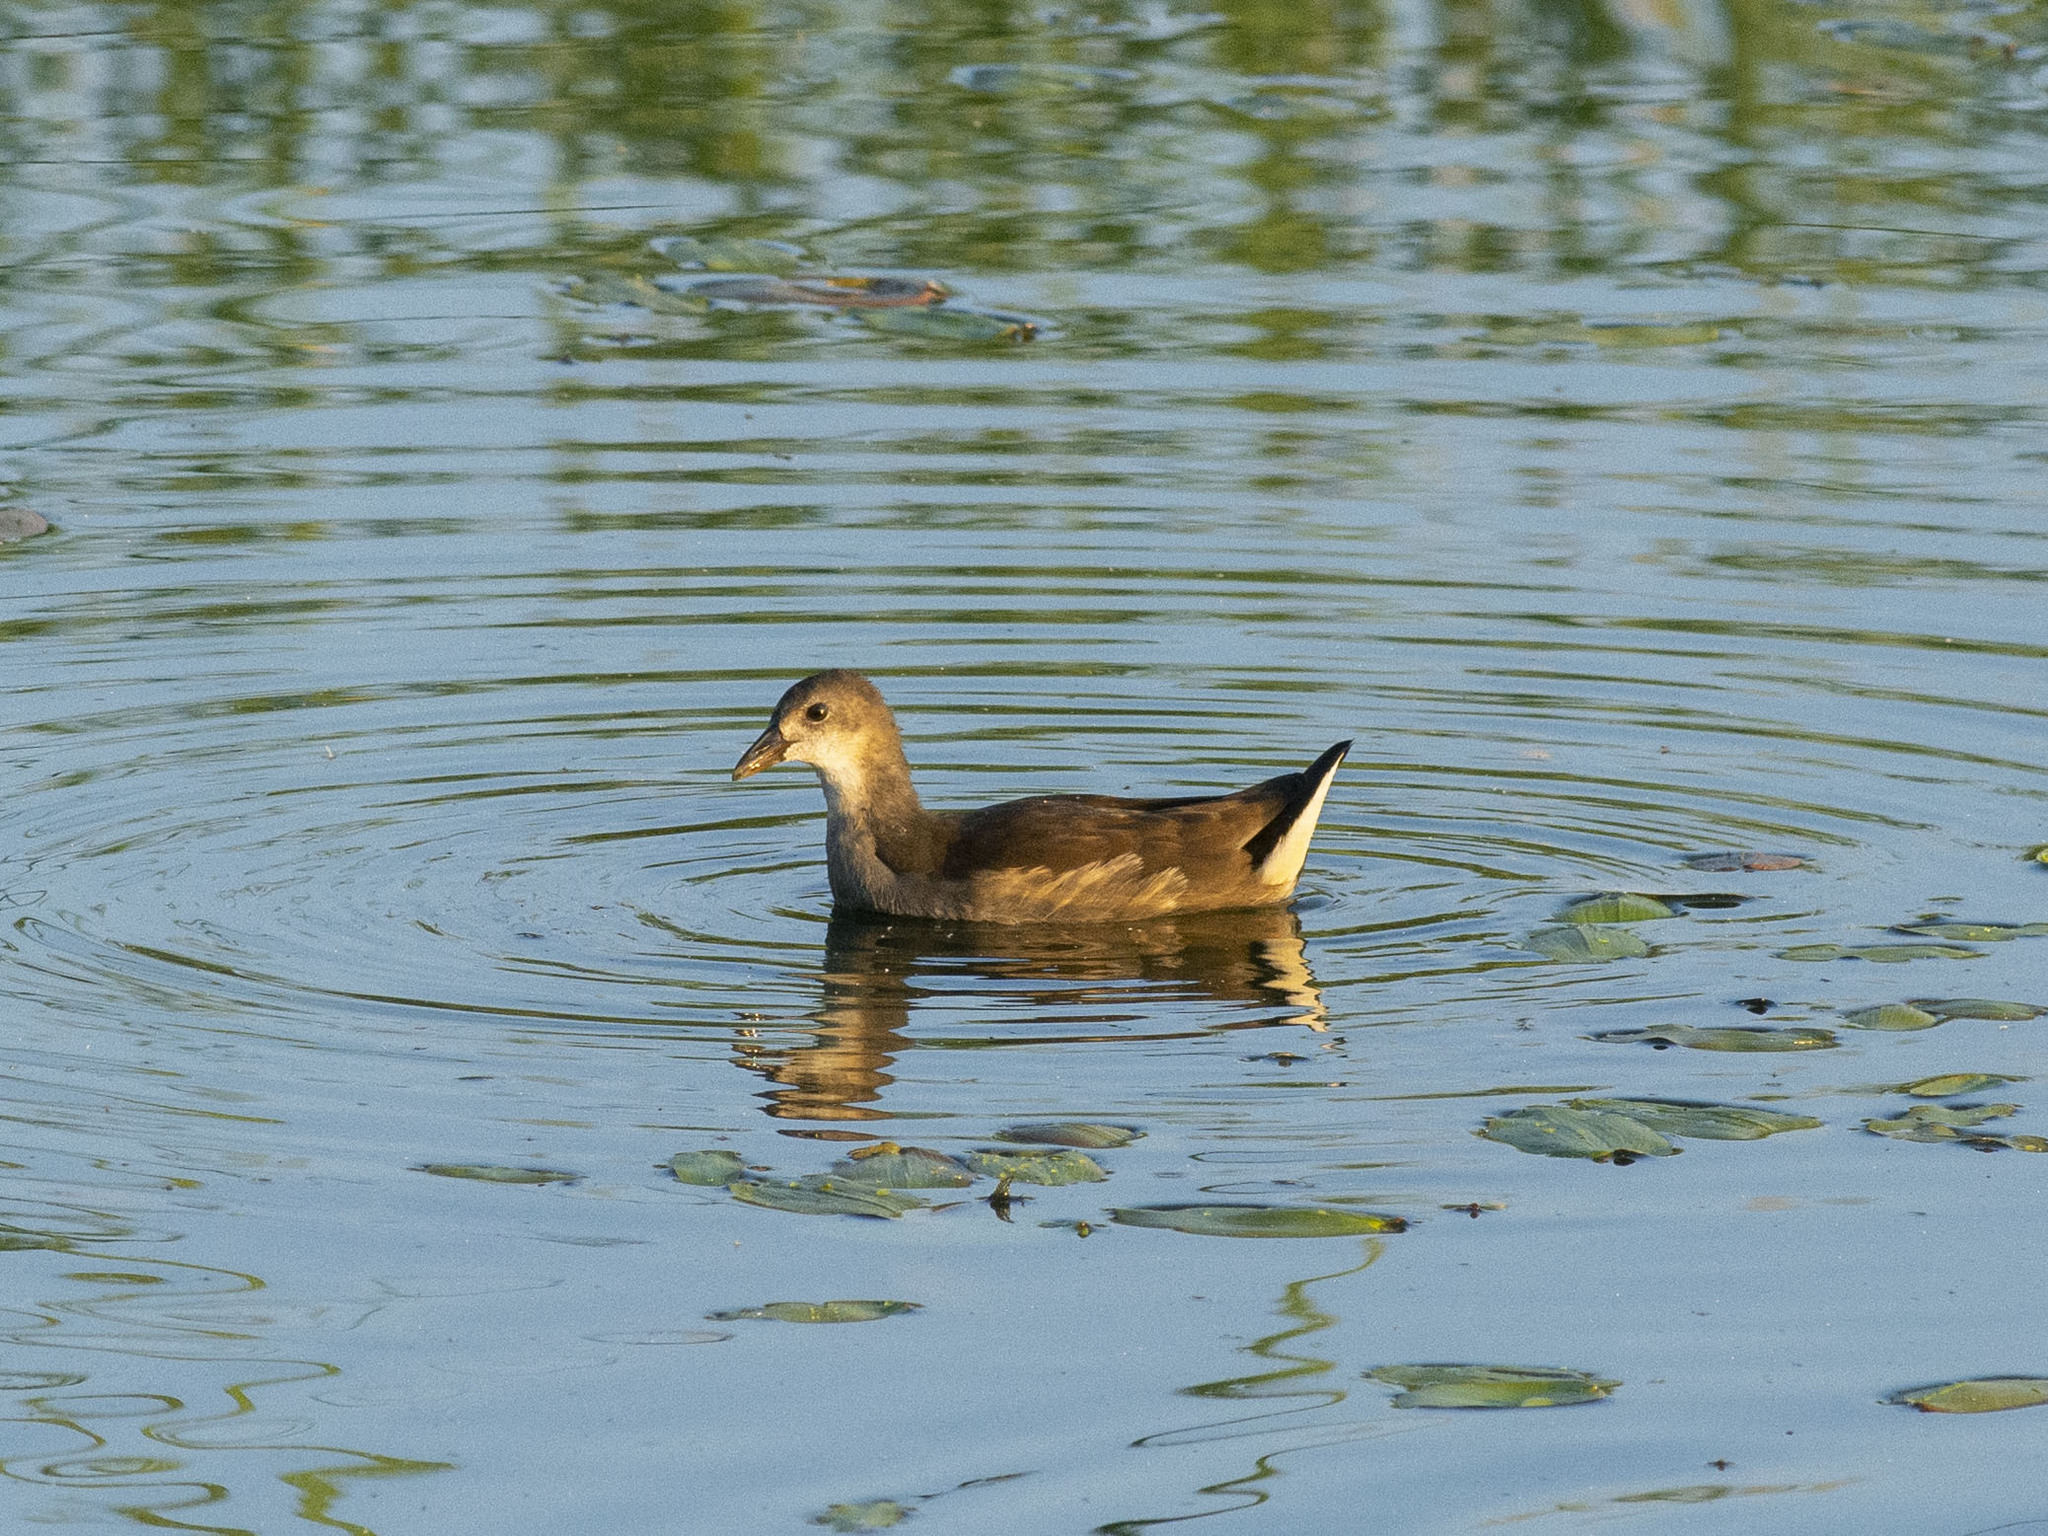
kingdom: Animalia
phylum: Chordata
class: Aves
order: Gruiformes
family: Rallidae
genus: Gallinula
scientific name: Gallinula chloropus
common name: Common moorhen
